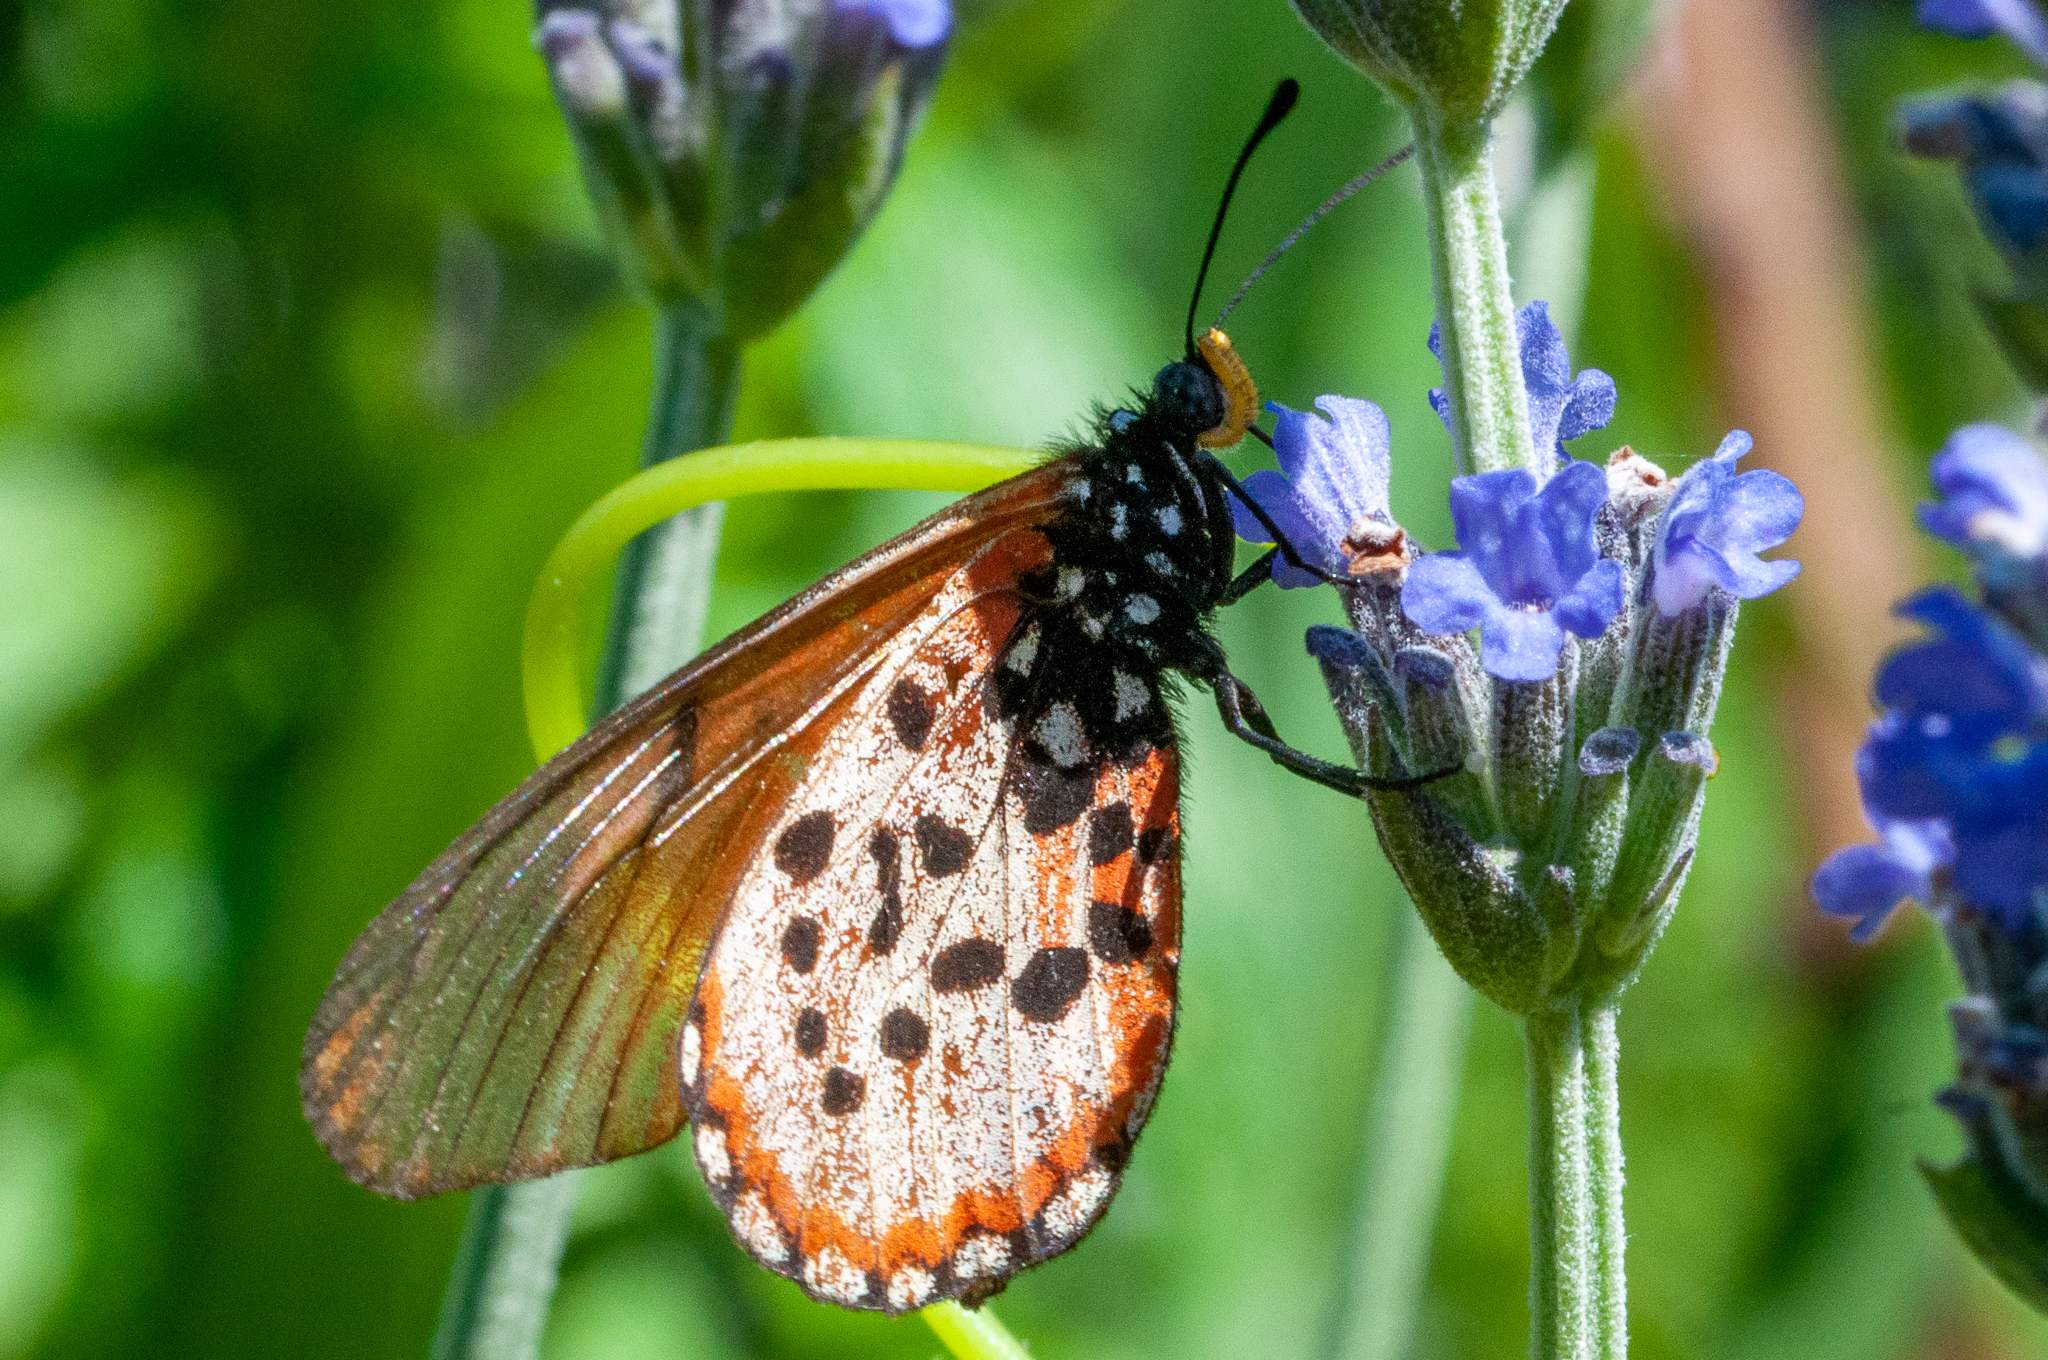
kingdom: Animalia
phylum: Arthropoda
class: Insecta
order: Lepidoptera
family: Nymphalidae
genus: Acraea
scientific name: Acraea horta
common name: Garden acraea
